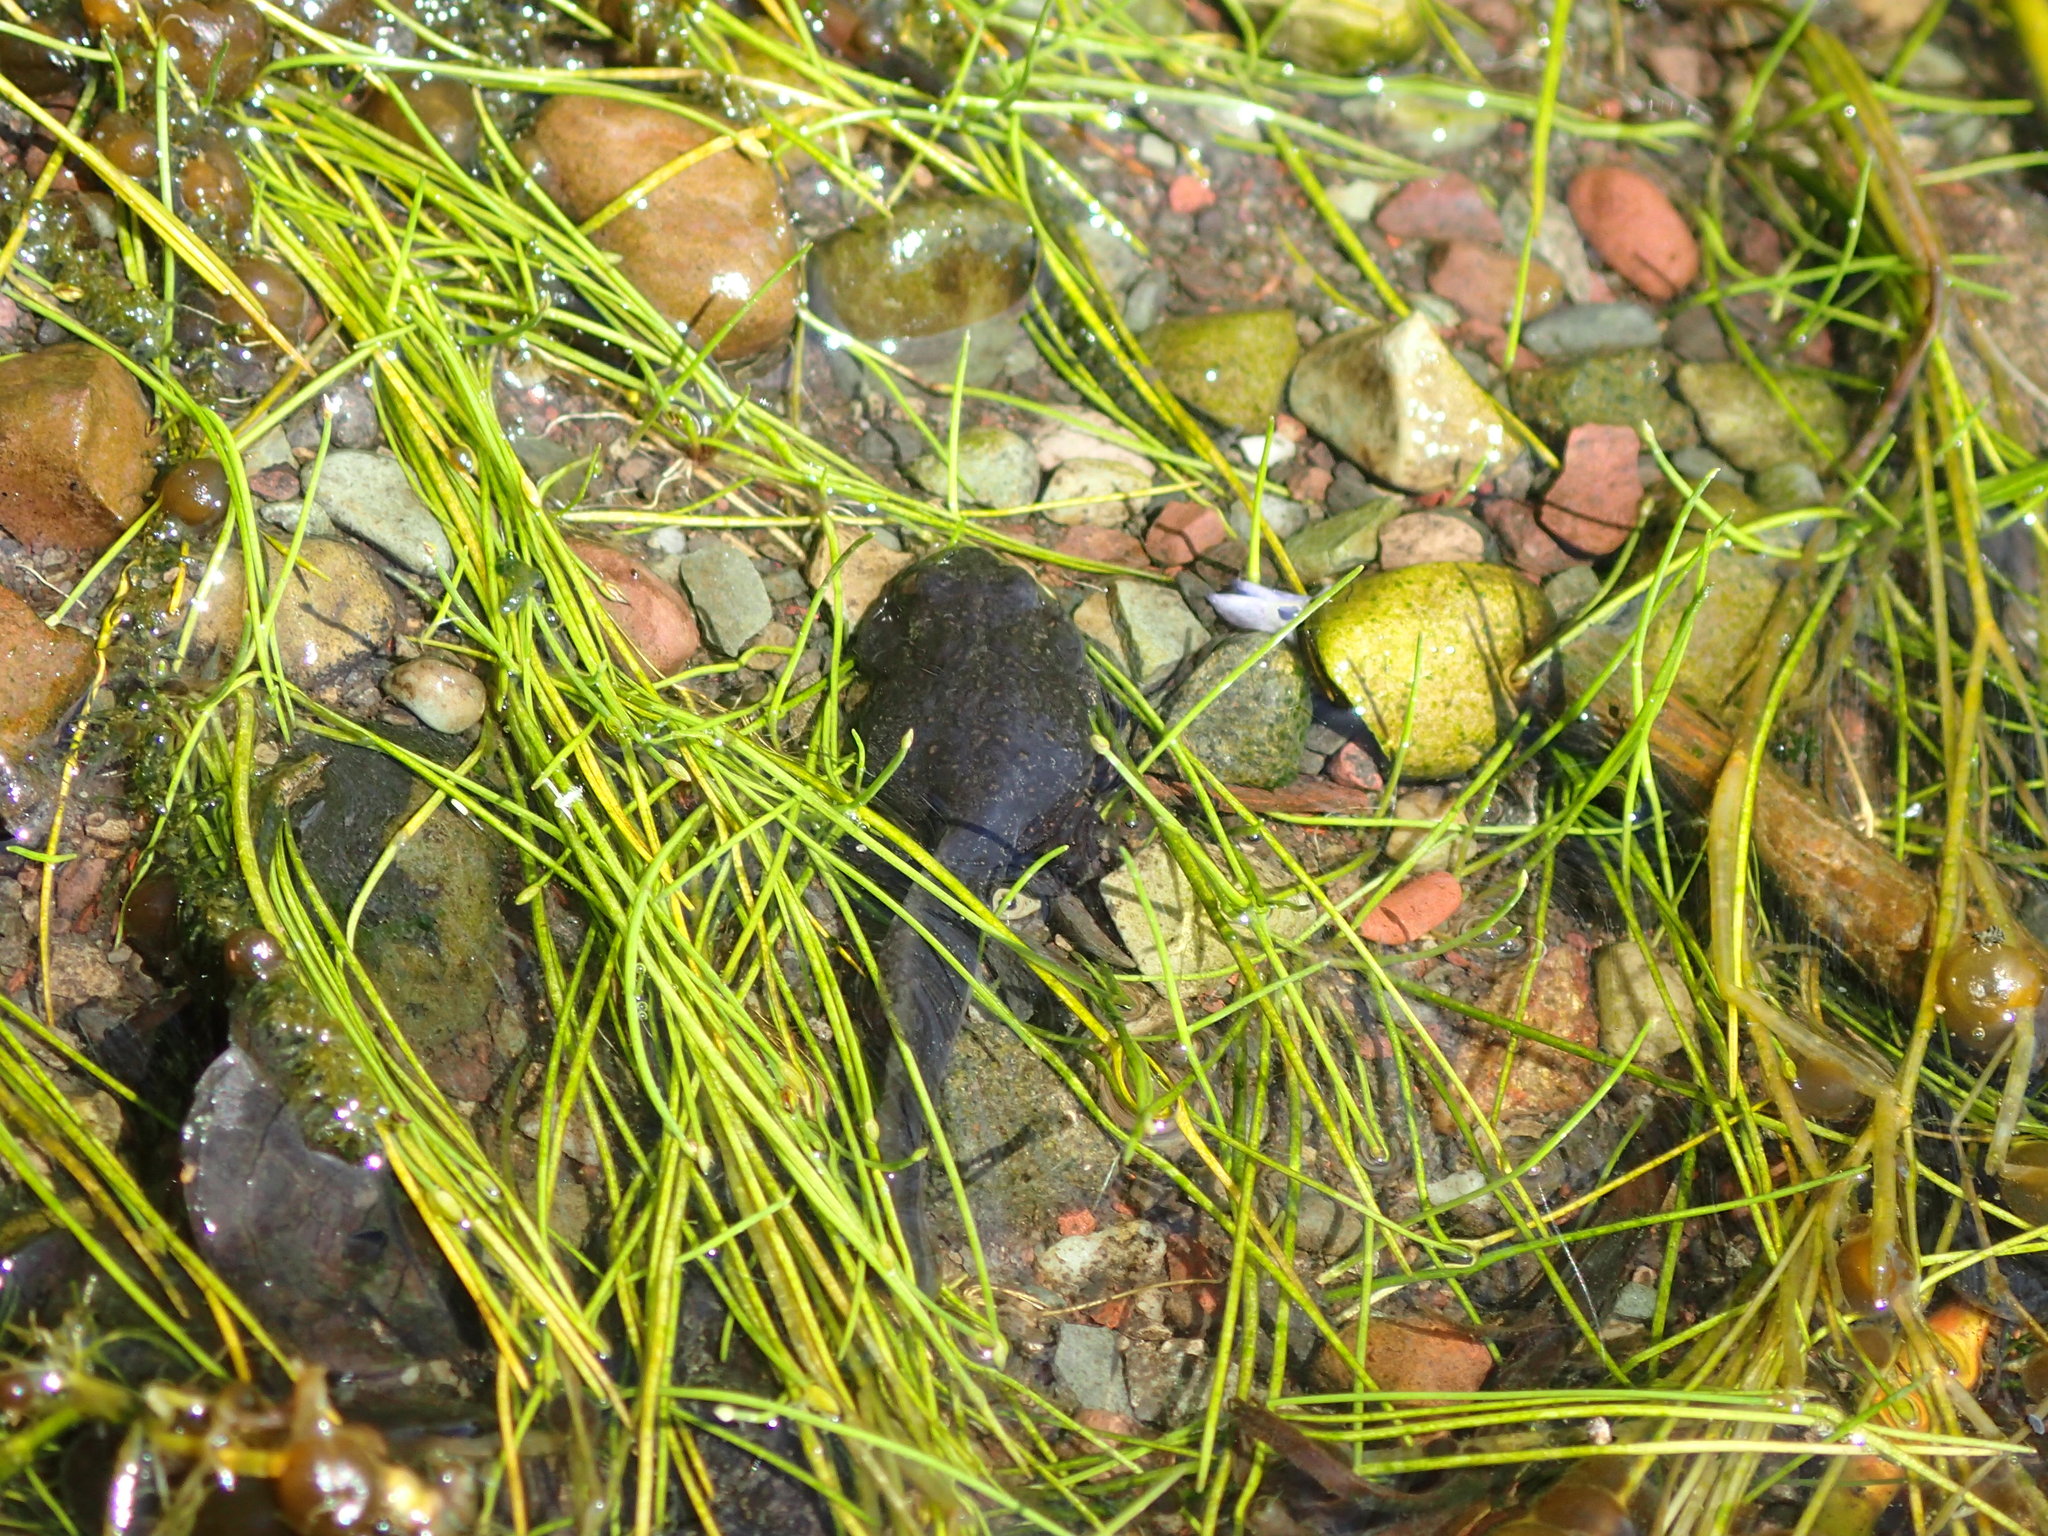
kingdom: Animalia
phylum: Chordata
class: Amphibia
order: Anura
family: Bufonidae
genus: Anaxyrus
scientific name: Anaxyrus boreas
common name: Western toad
